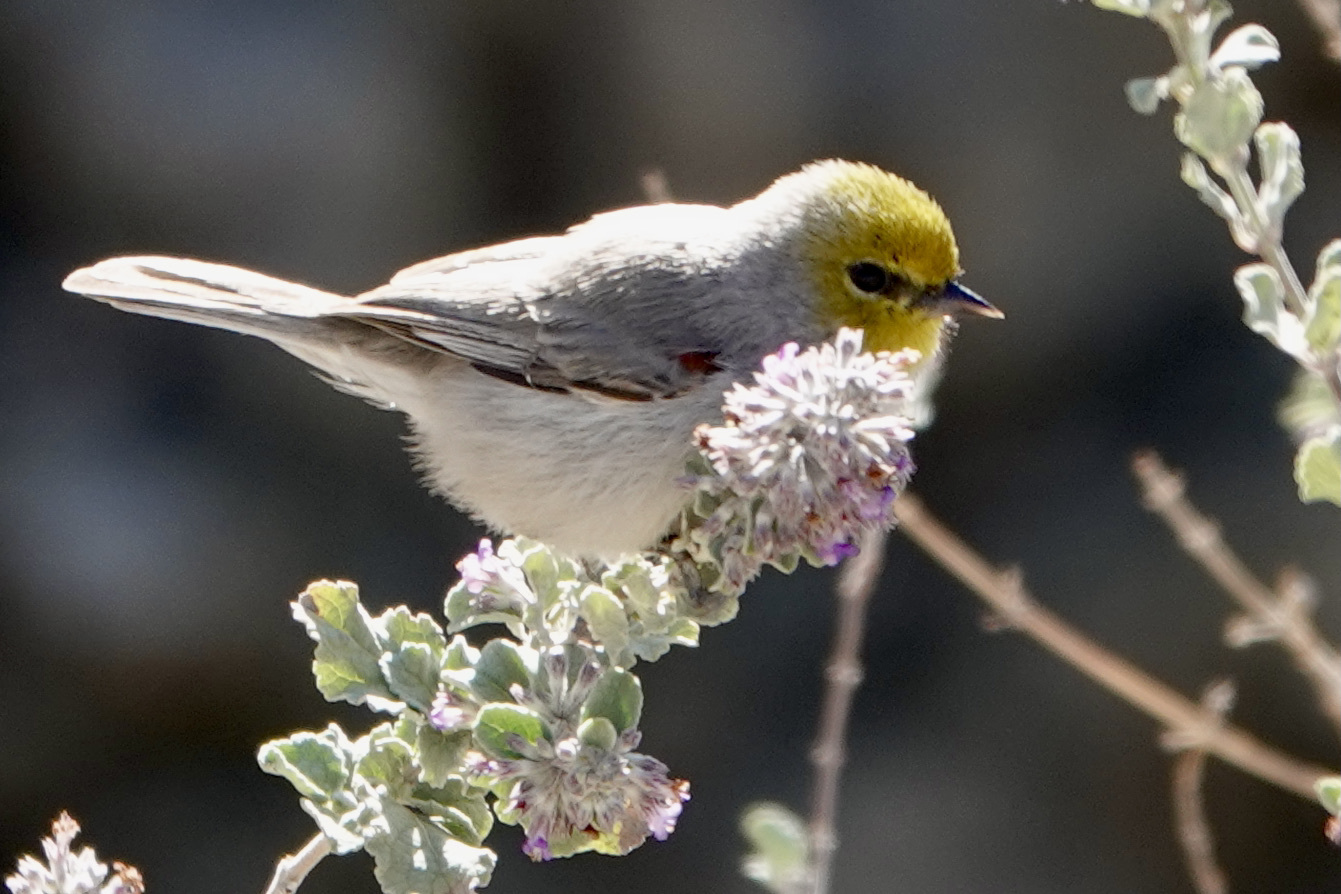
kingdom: Animalia
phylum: Chordata
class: Aves
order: Passeriformes
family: Remizidae
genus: Auriparus
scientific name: Auriparus flaviceps
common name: Verdin
